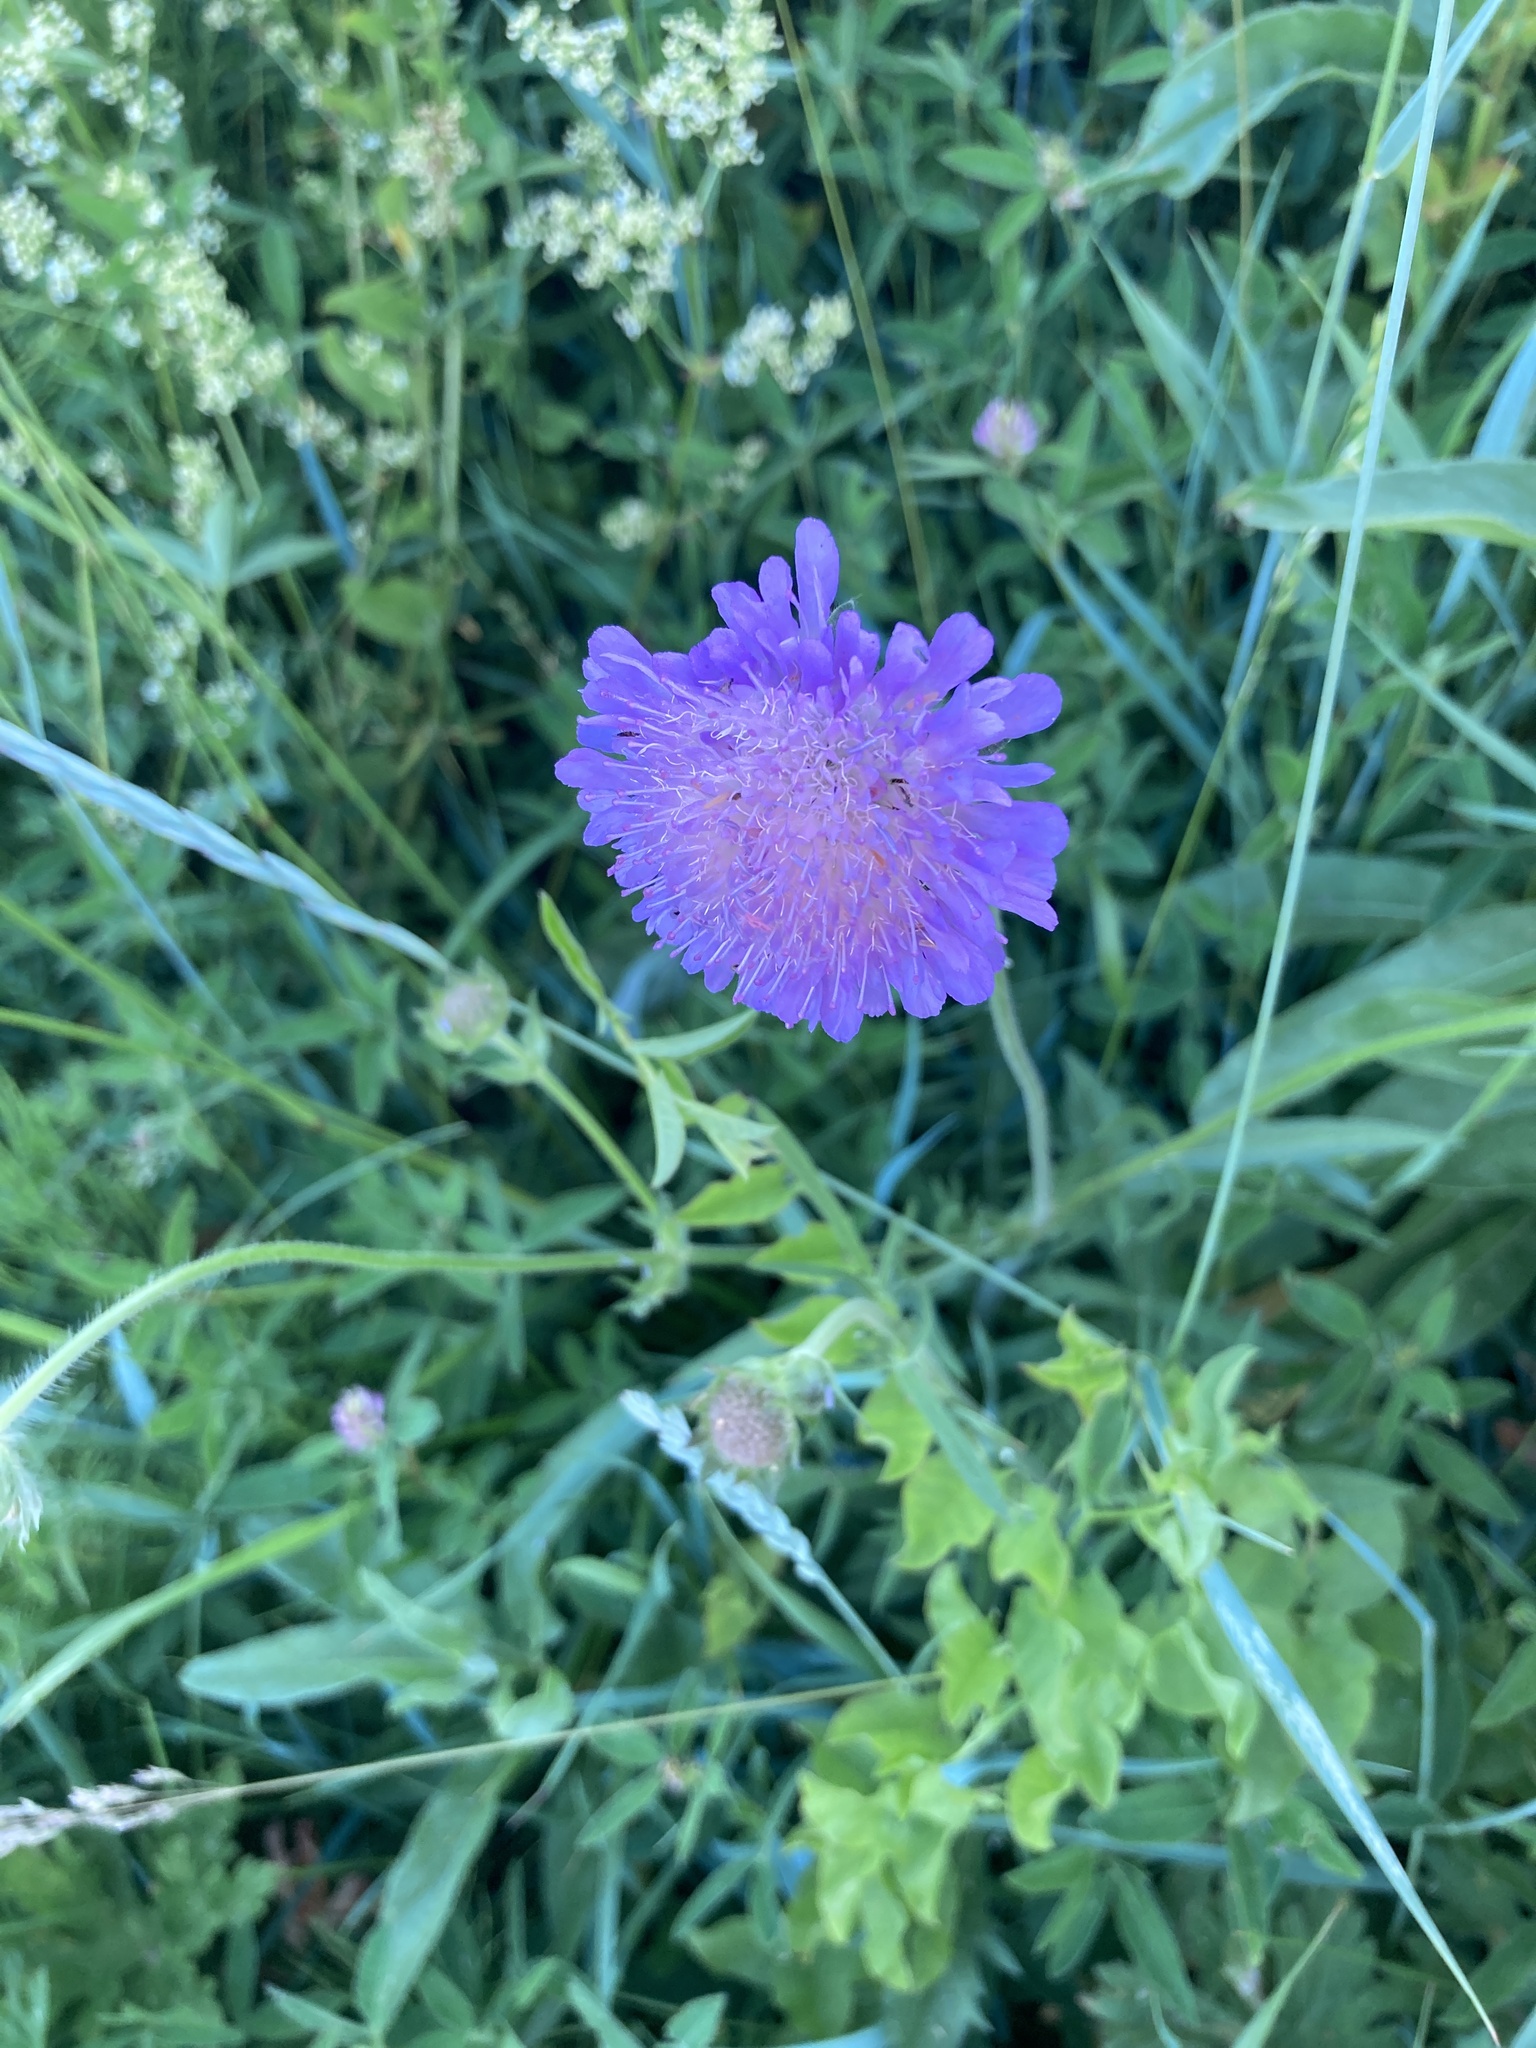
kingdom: Plantae
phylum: Tracheophyta
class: Magnoliopsida
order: Dipsacales
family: Caprifoliaceae
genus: Knautia
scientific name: Knautia arvensis
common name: Field scabiosa
